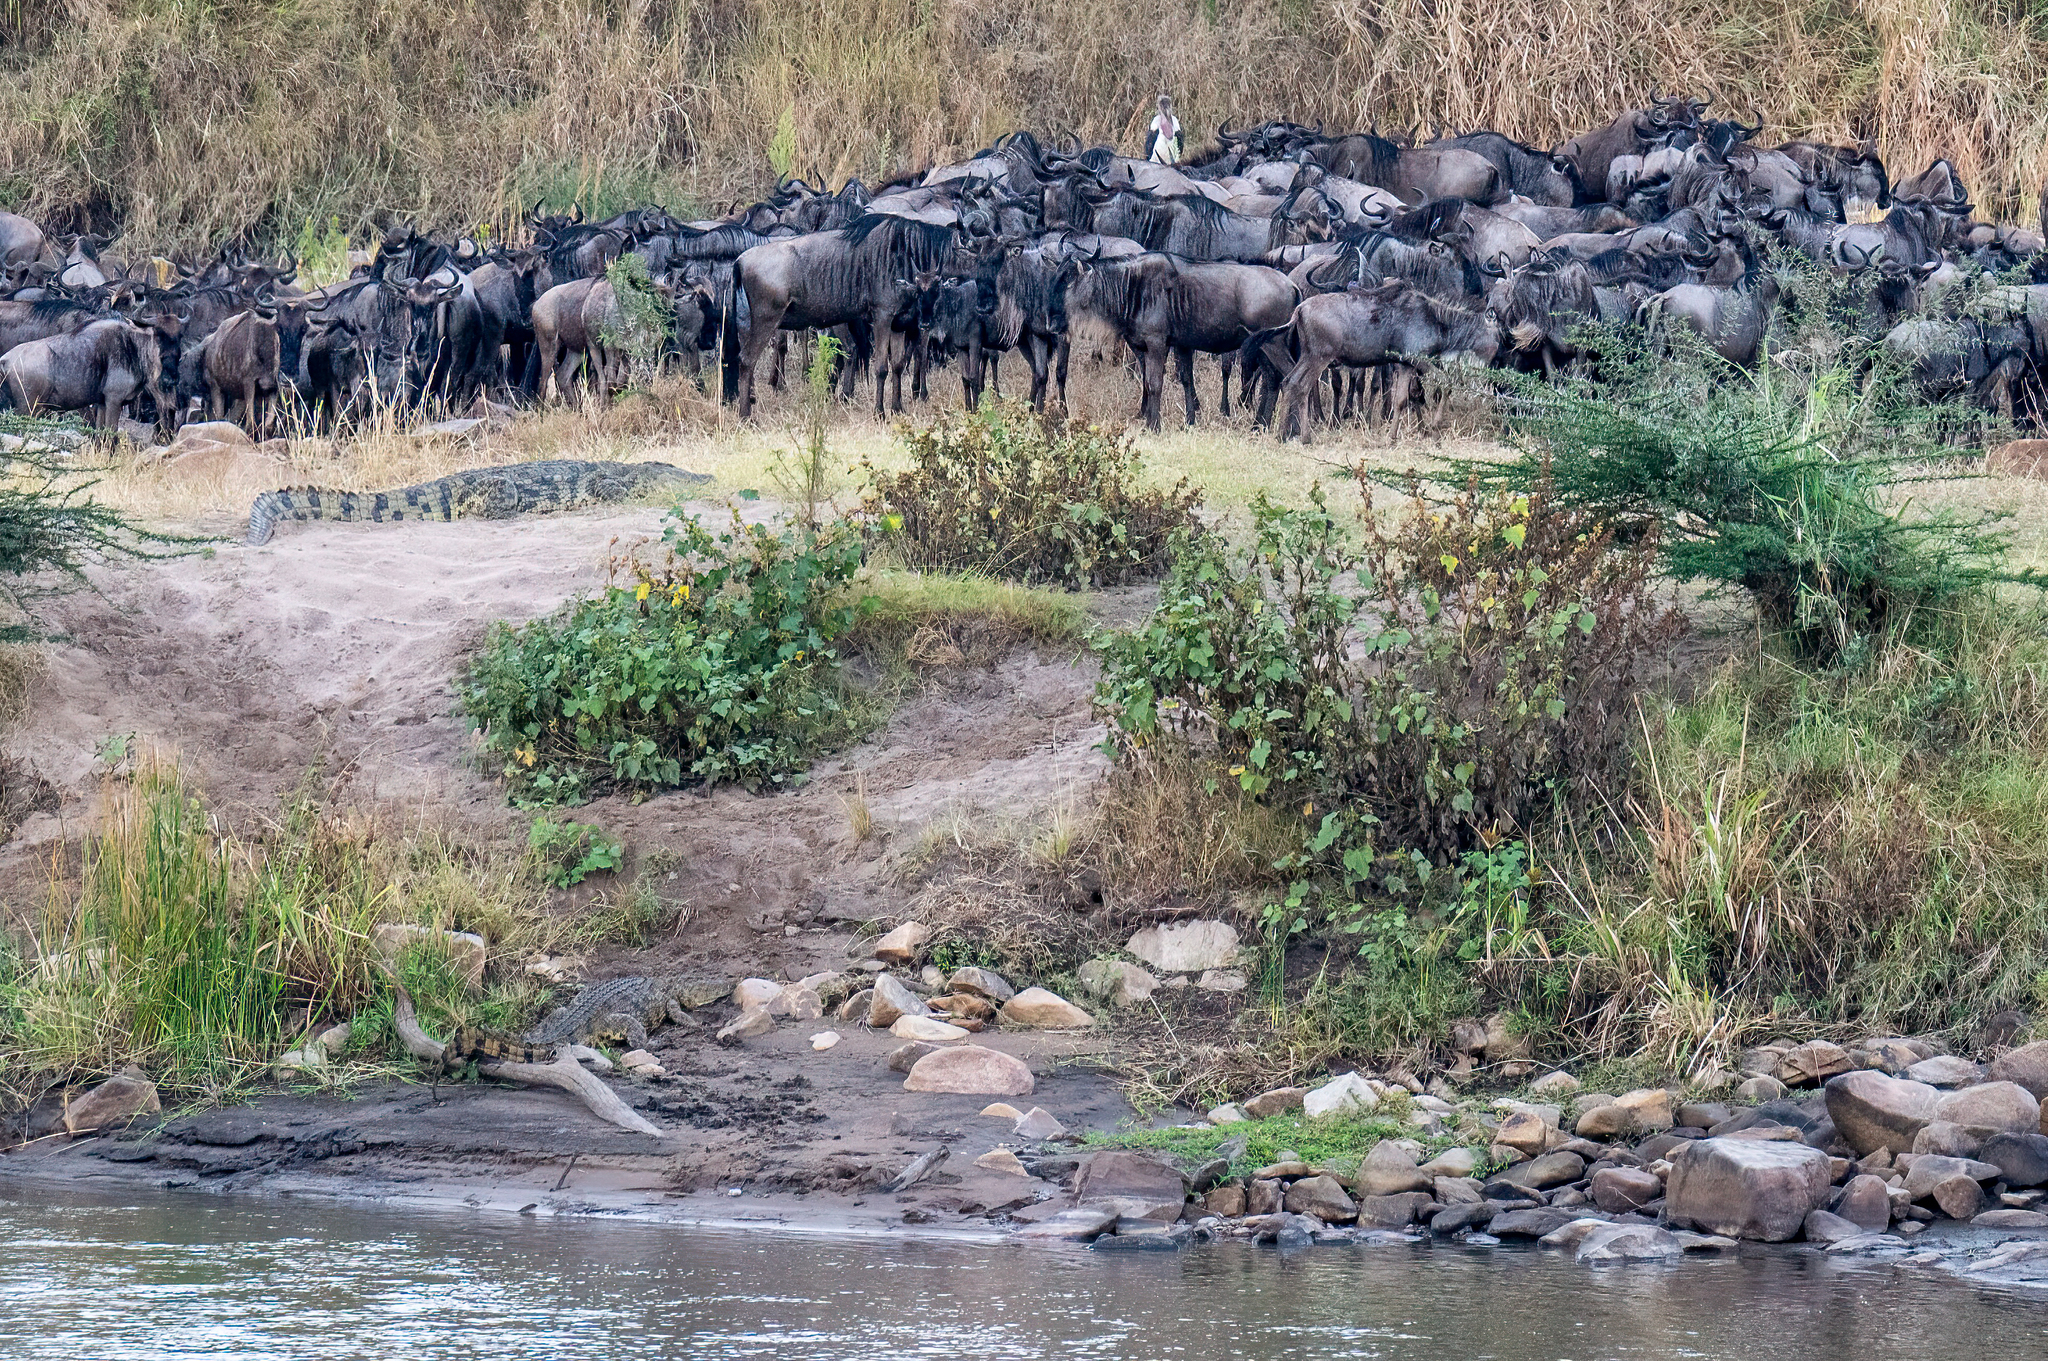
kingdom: Animalia
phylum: Chordata
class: Mammalia
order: Artiodactyla
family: Bovidae
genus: Connochaetes
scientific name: Connochaetes taurinus
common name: Blue wildebeest
